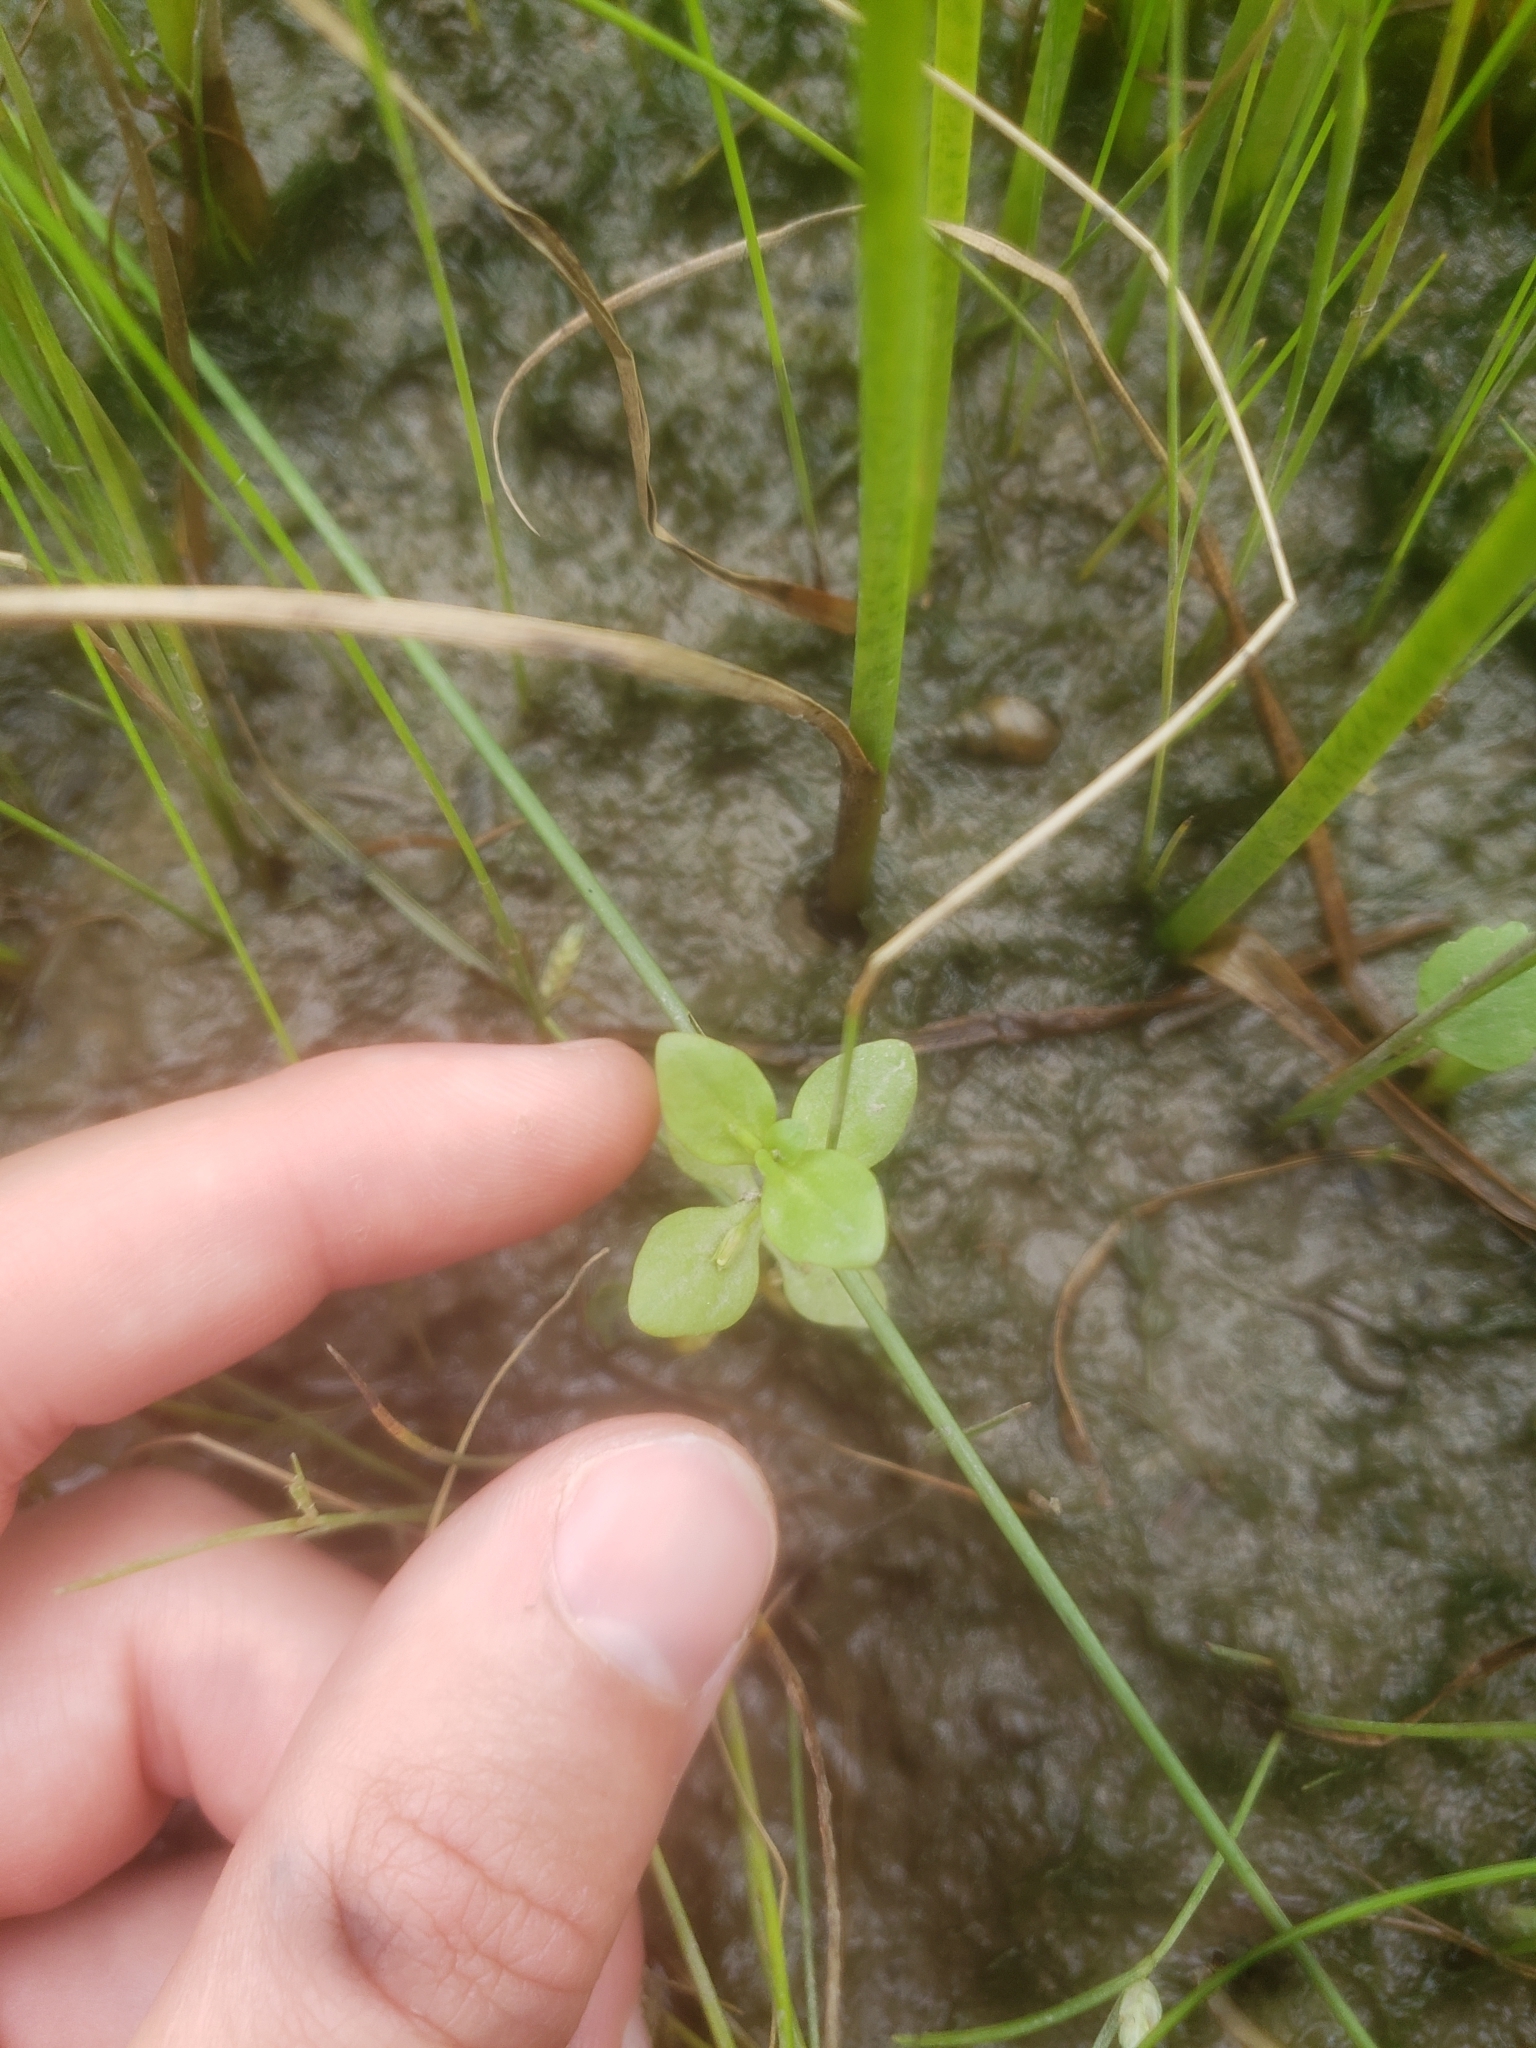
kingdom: Plantae
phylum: Tracheophyta
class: Magnoliopsida
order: Lamiales
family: Linderniaceae
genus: Lindernia
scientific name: Lindernia dubia
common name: Annual false pimpernel
